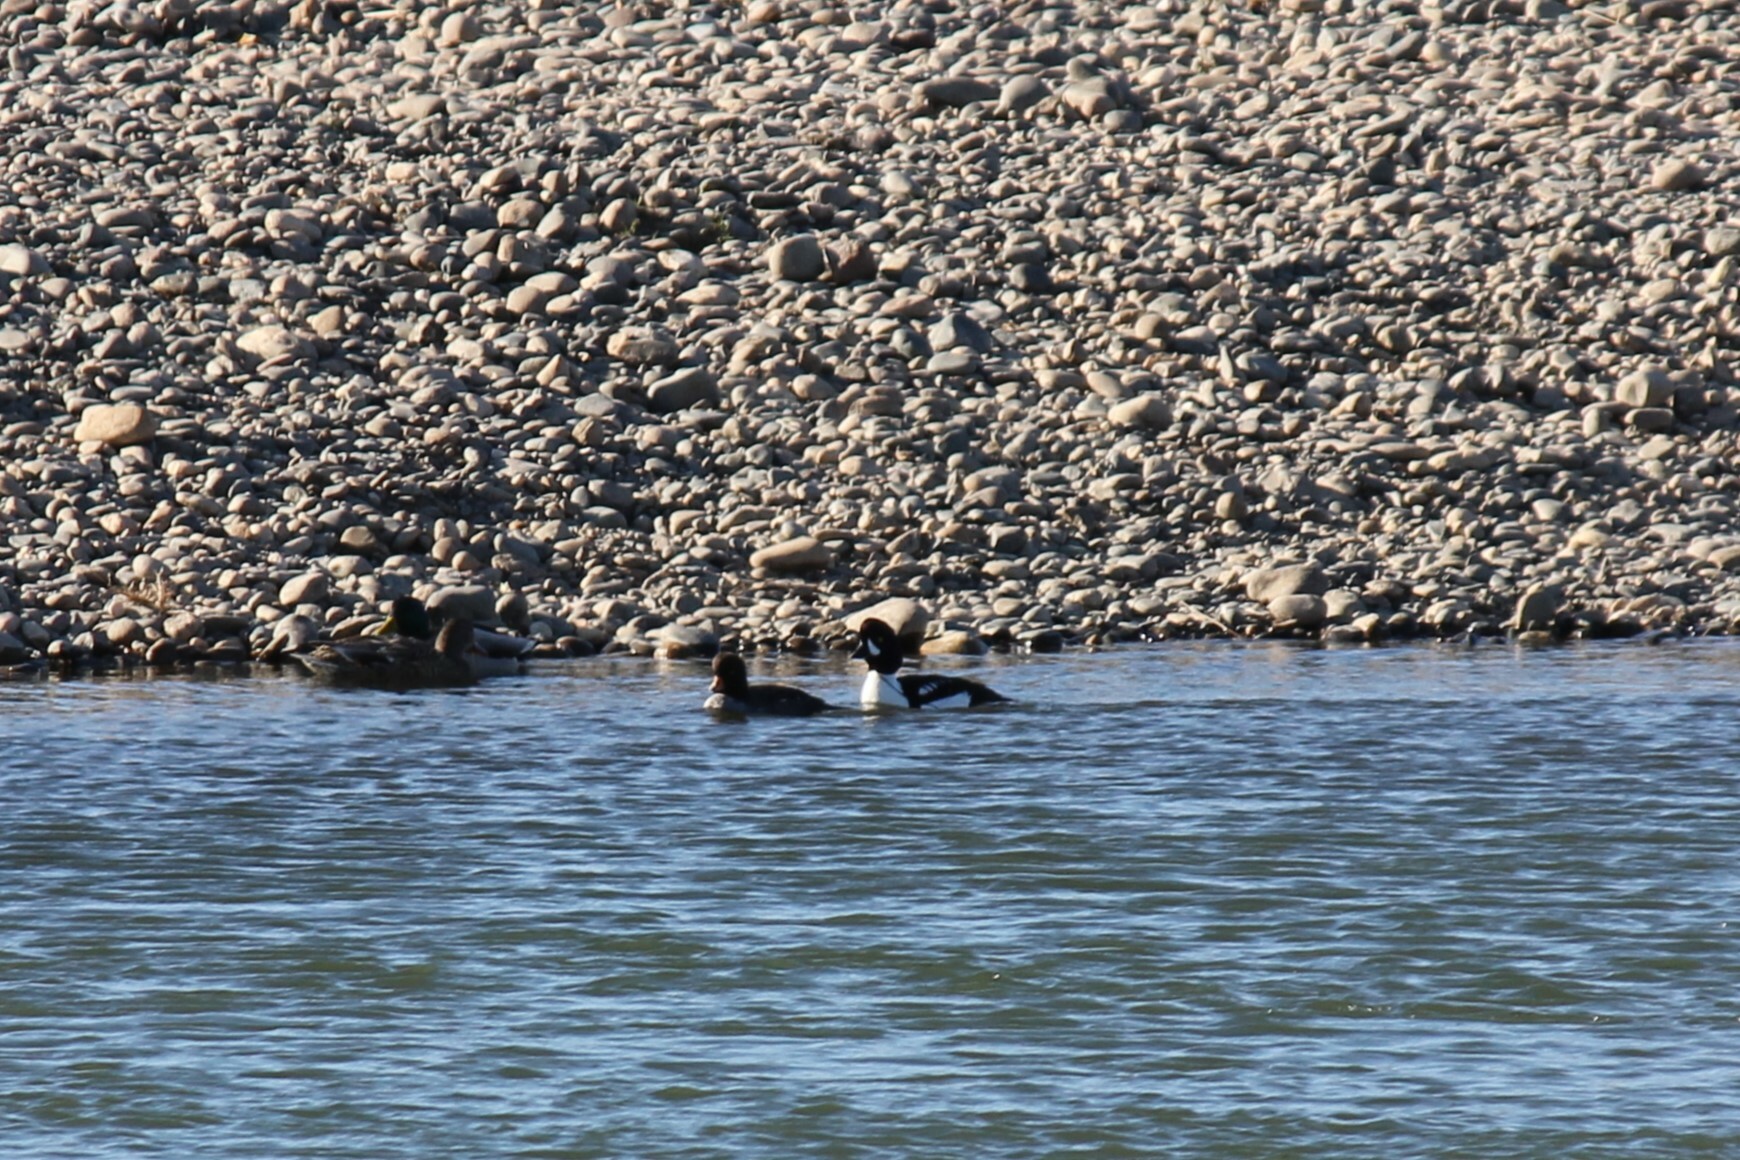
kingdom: Animalia
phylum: Chordata
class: Aves
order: Anseriformes
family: Anatidae
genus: Bucephala
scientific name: Bucephala islandica
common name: Barrow's goldeneye
